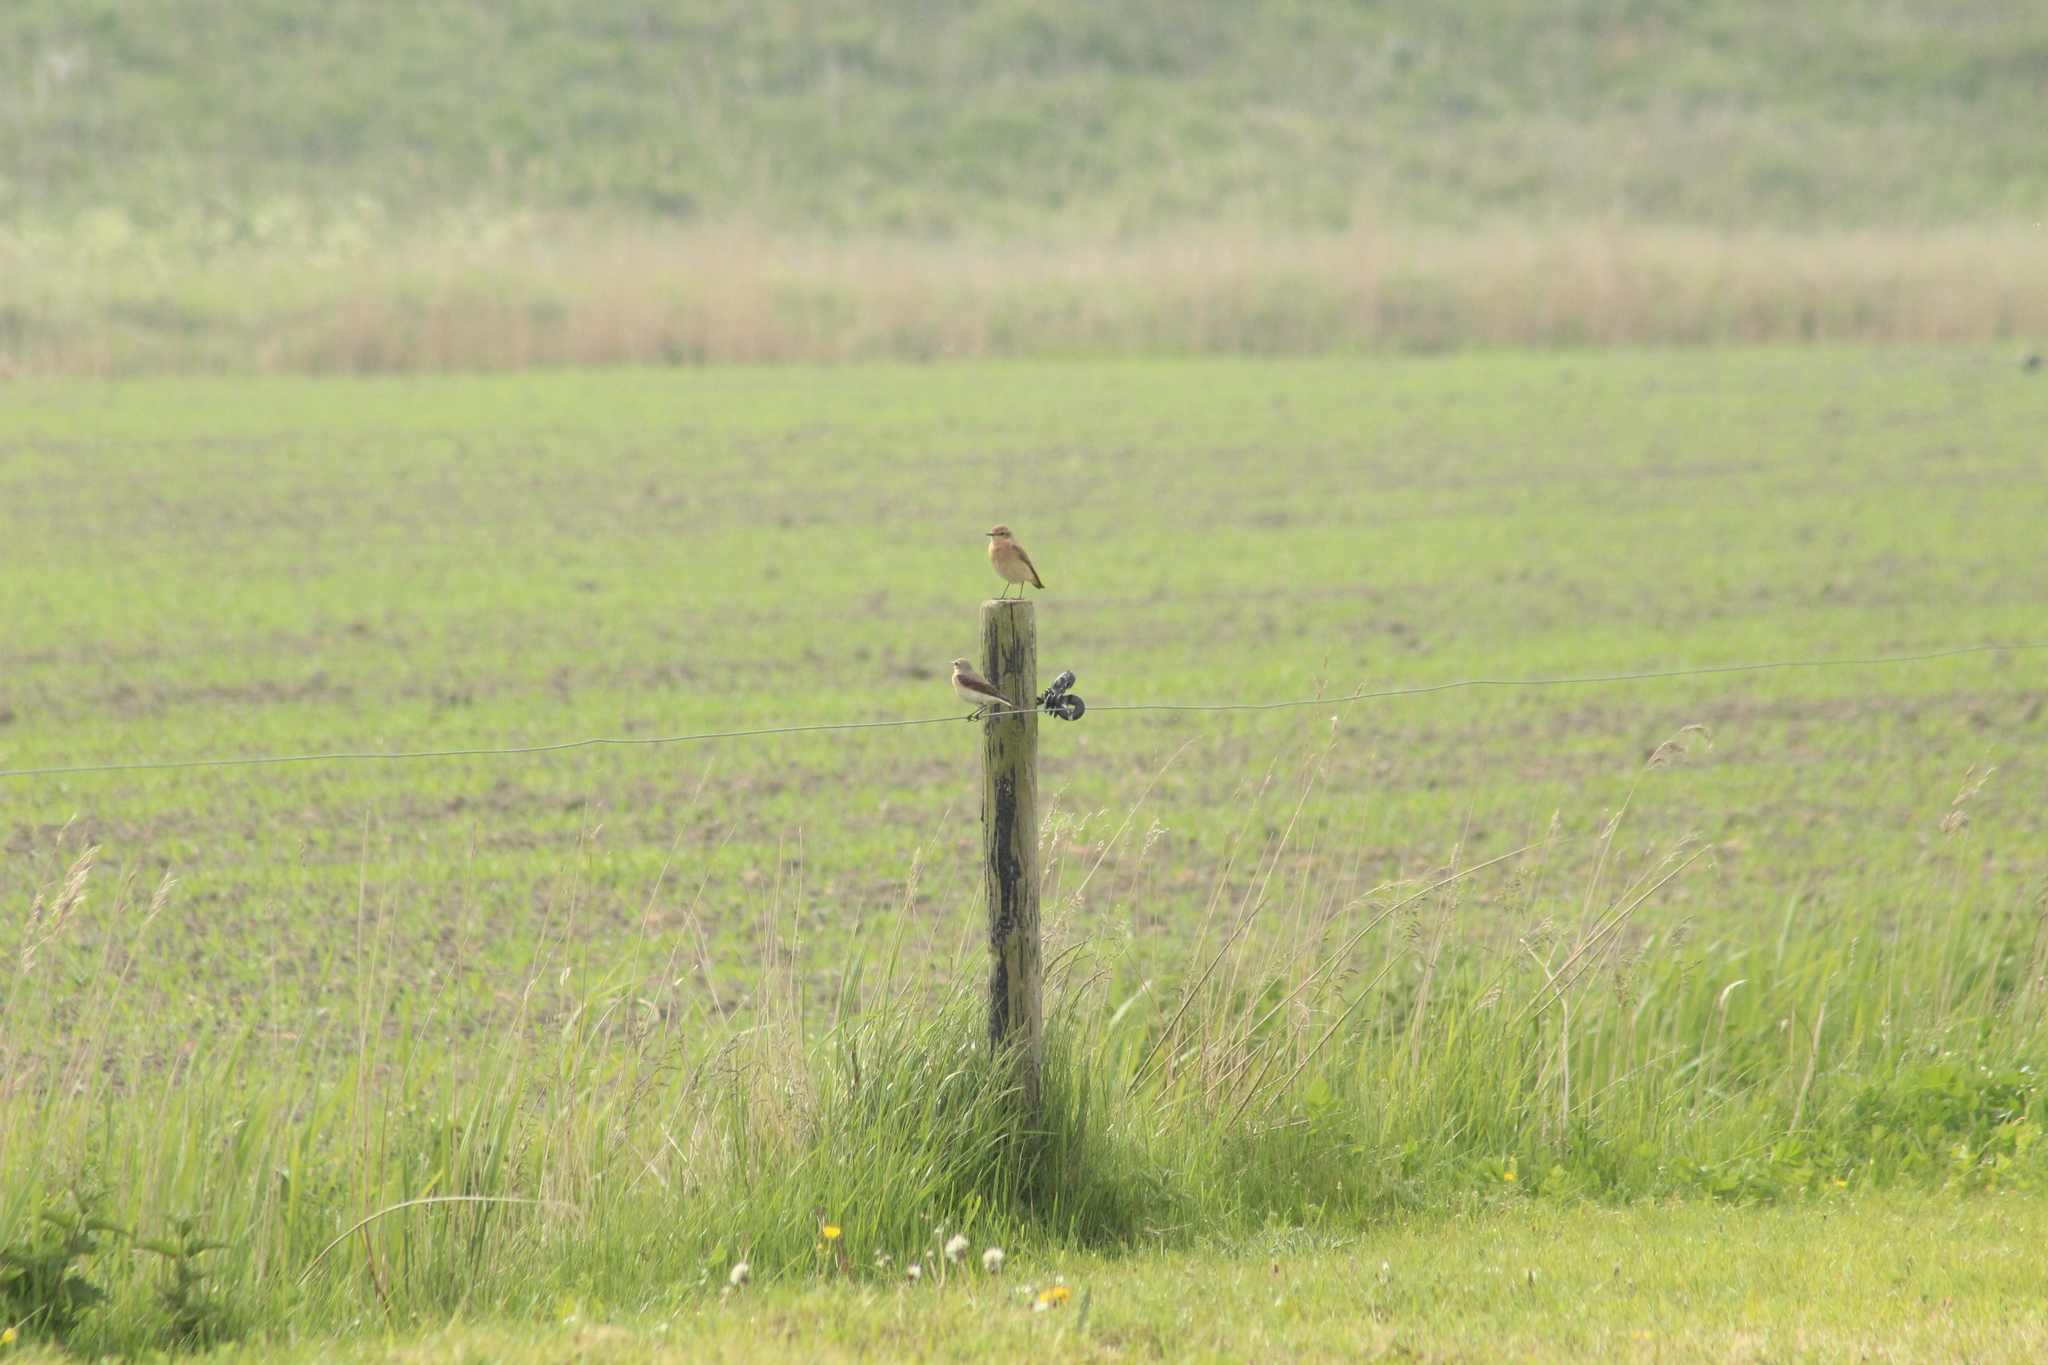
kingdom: Animalia
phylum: Chordata
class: Aves
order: Passeriformes
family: Muscicapidae
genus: Oenanthe
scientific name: Oenanthe oenanthe
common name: Northern wheatear
